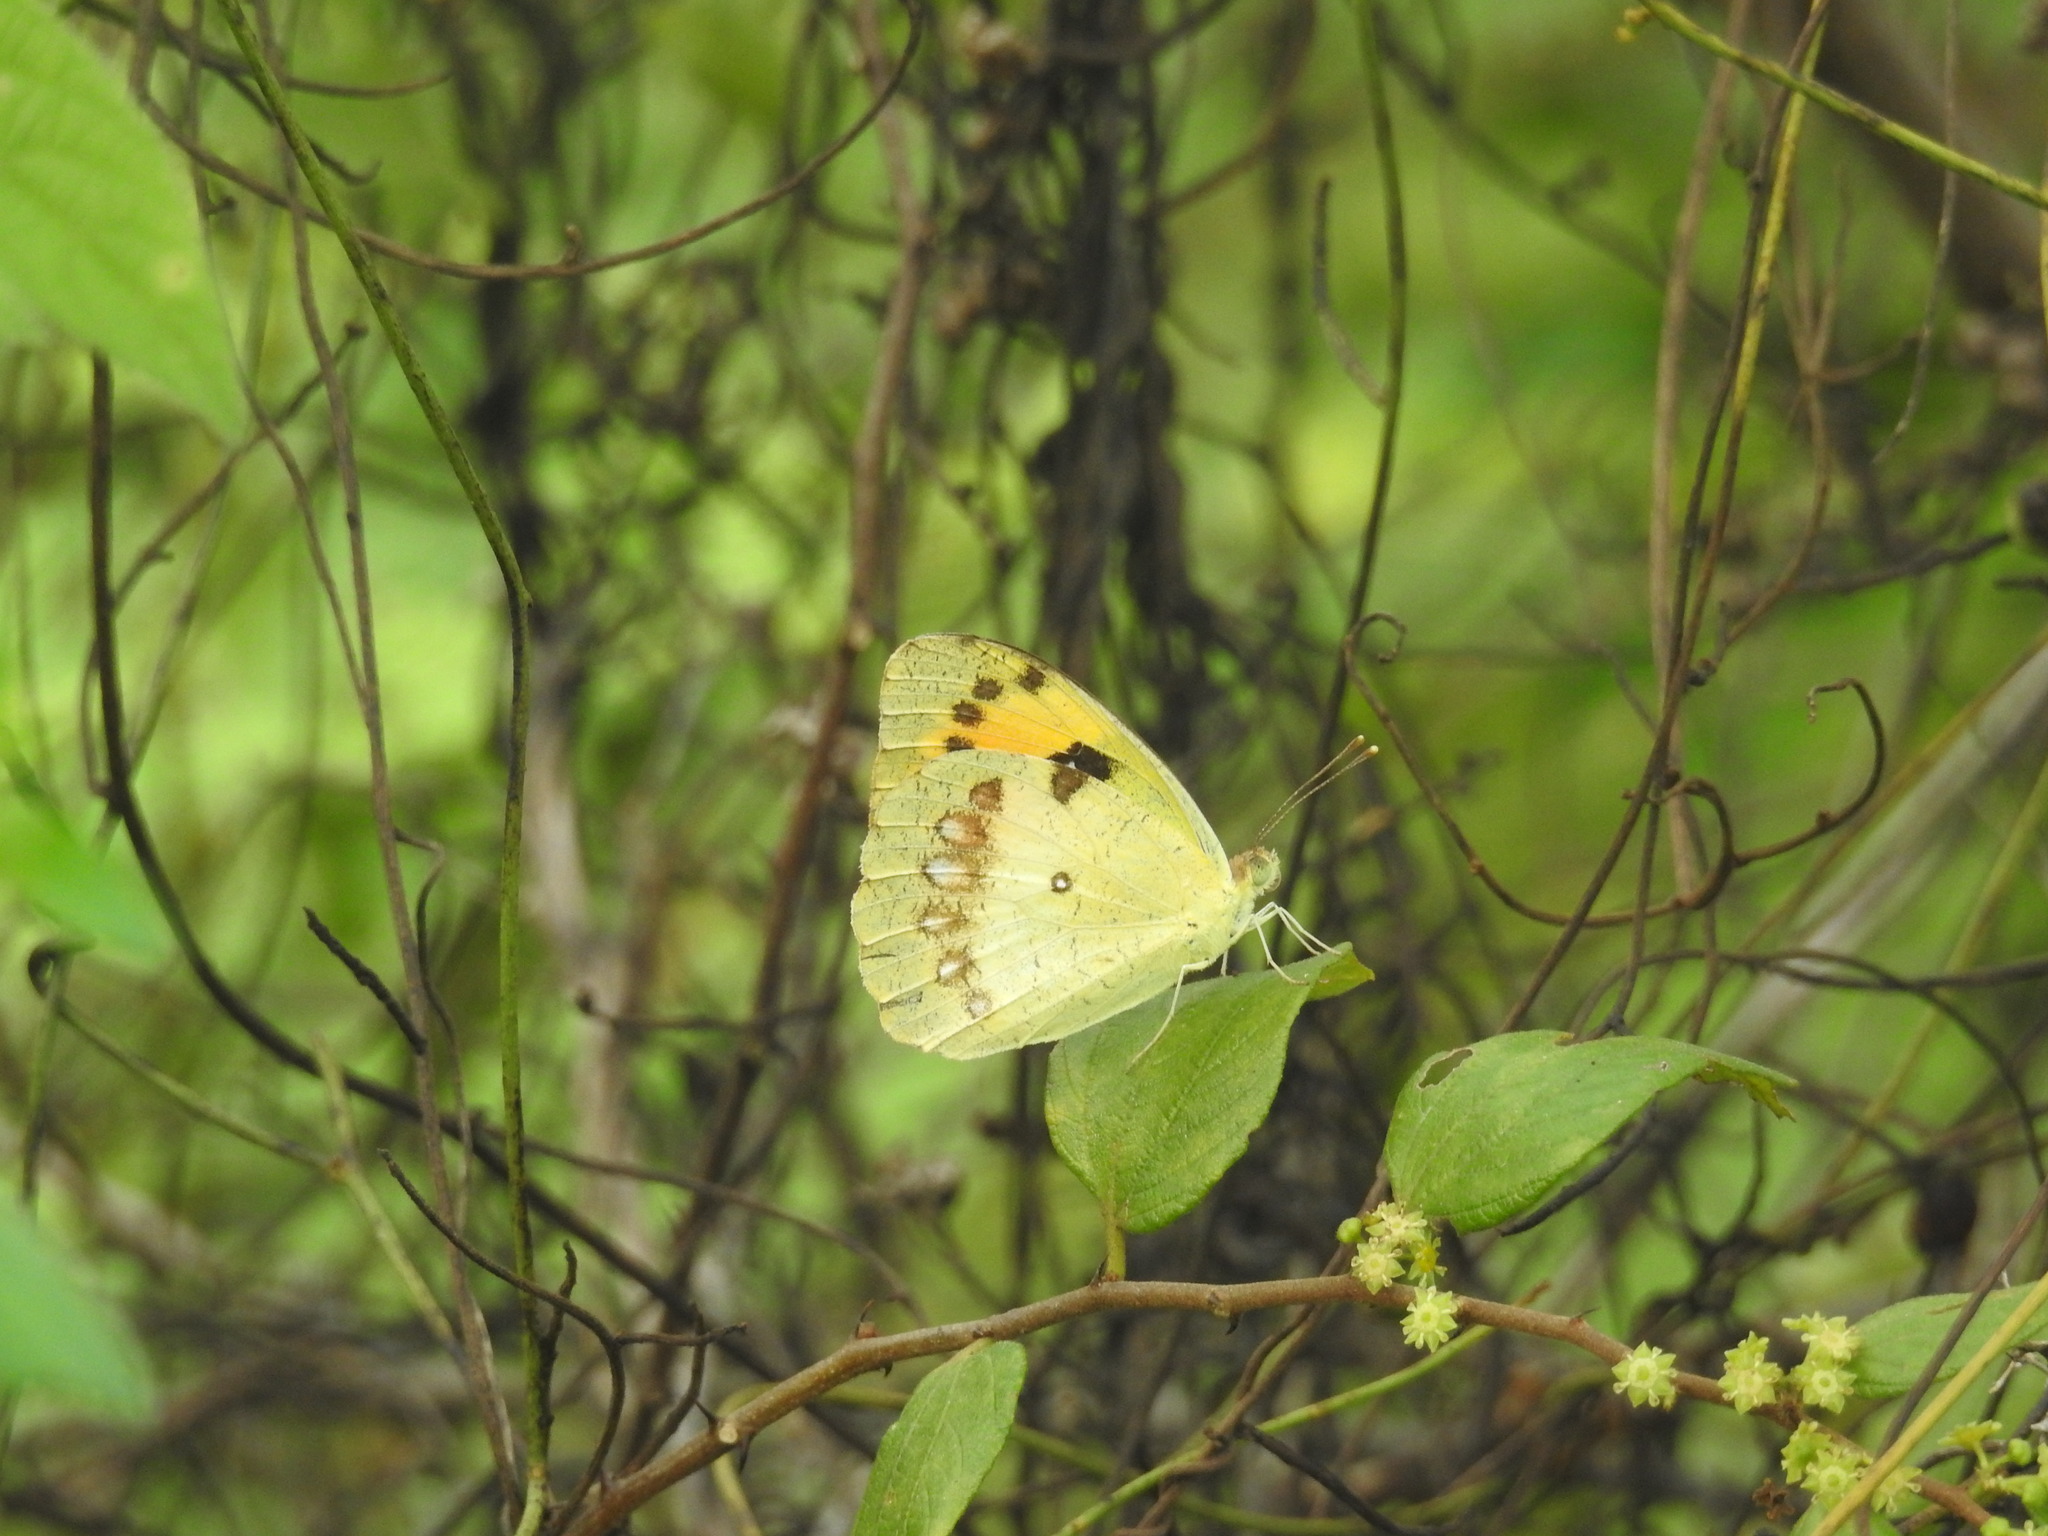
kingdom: Animalia
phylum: Arthropoda
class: Insecta
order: Lepidoptera
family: Pieridae
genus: Ixias
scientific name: Ixias marianne
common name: White orange tip
